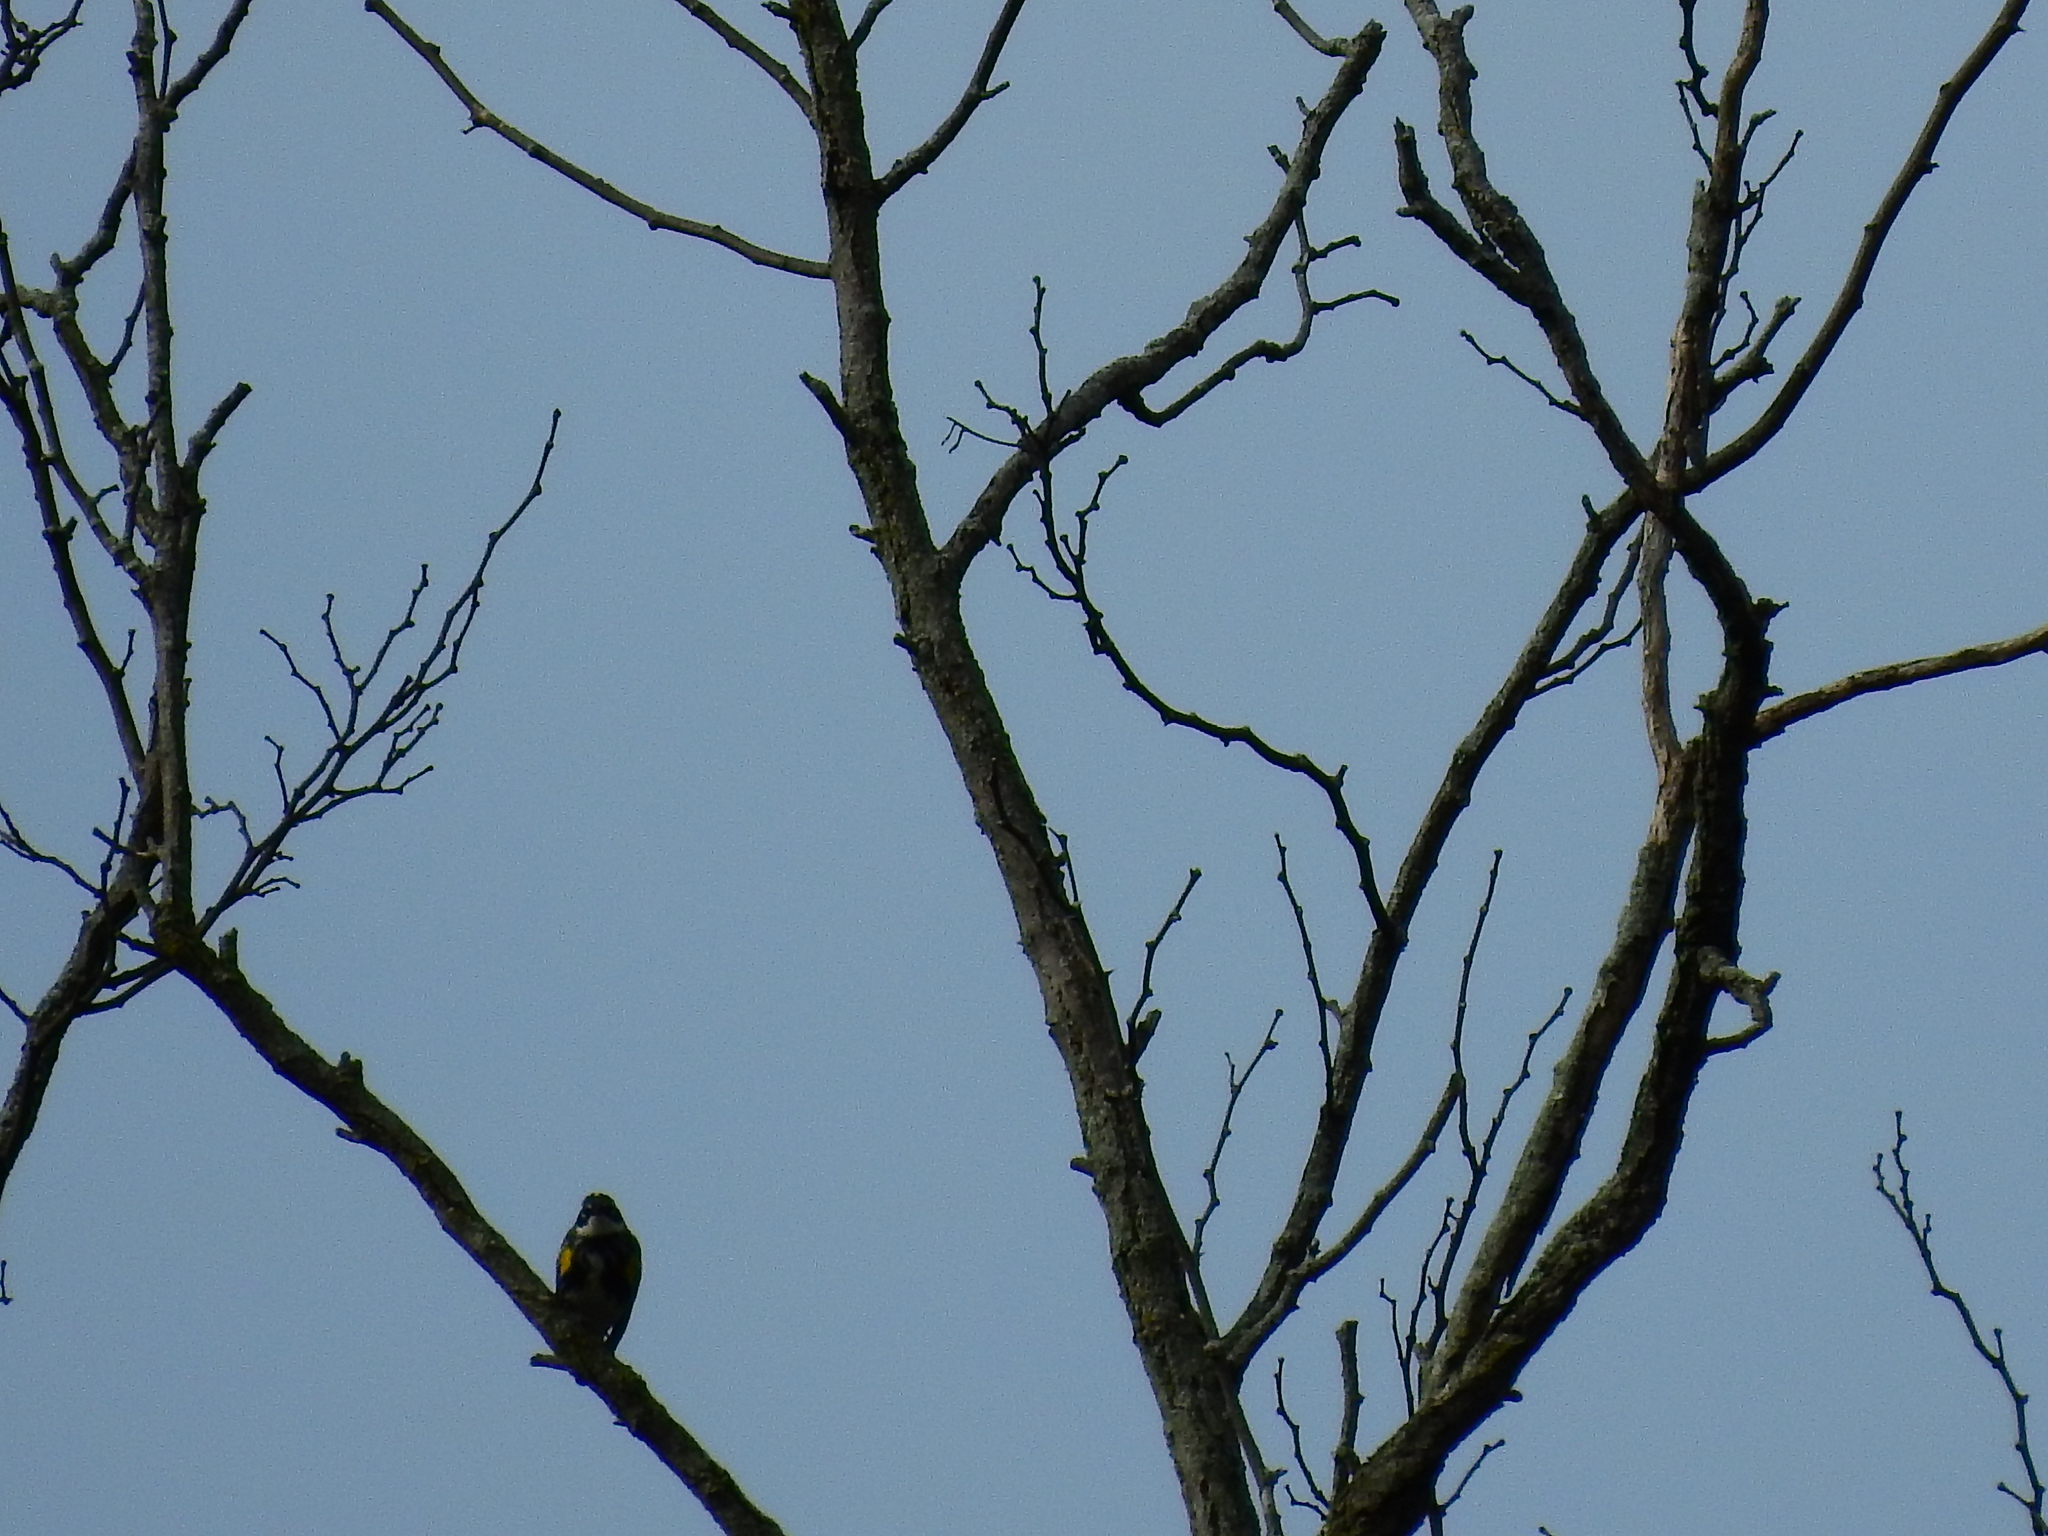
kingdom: Animalia
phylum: Chordata
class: Aves
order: Passeriformes
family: Parulidae
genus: Setophaga
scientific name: Setophaga coronata
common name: Myrtle warbler
